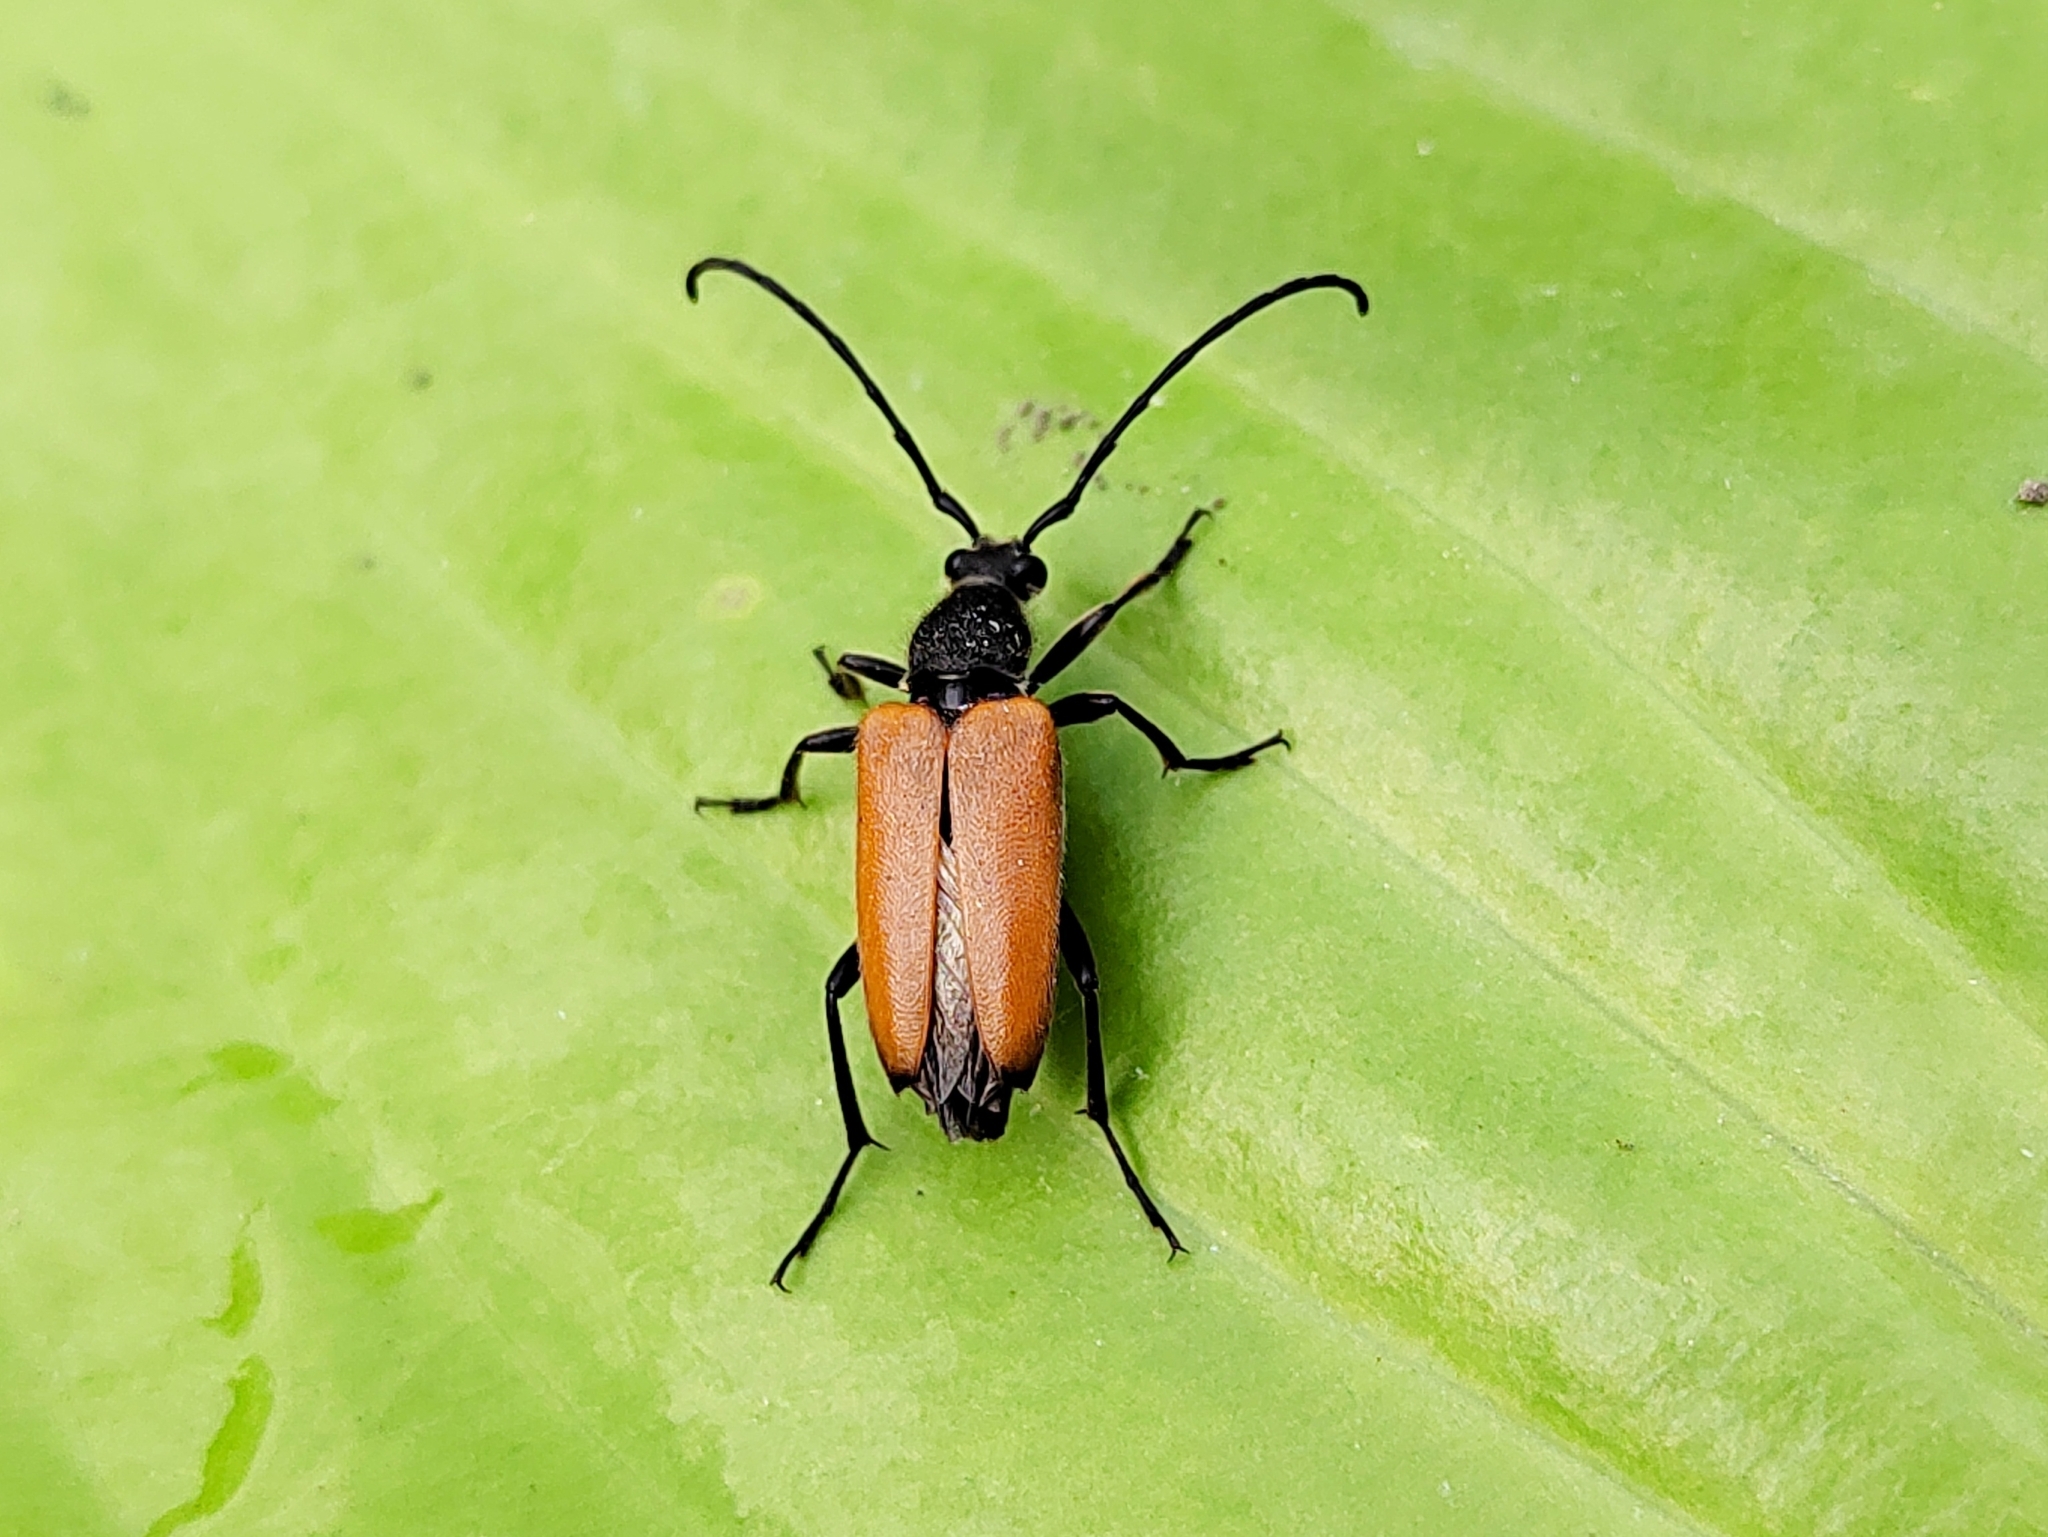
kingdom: Animalia
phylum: Arthropoda
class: Insecta
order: Coleoptera
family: Cerambycidae
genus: Paracorymbia
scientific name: Paracorymbia fulva
